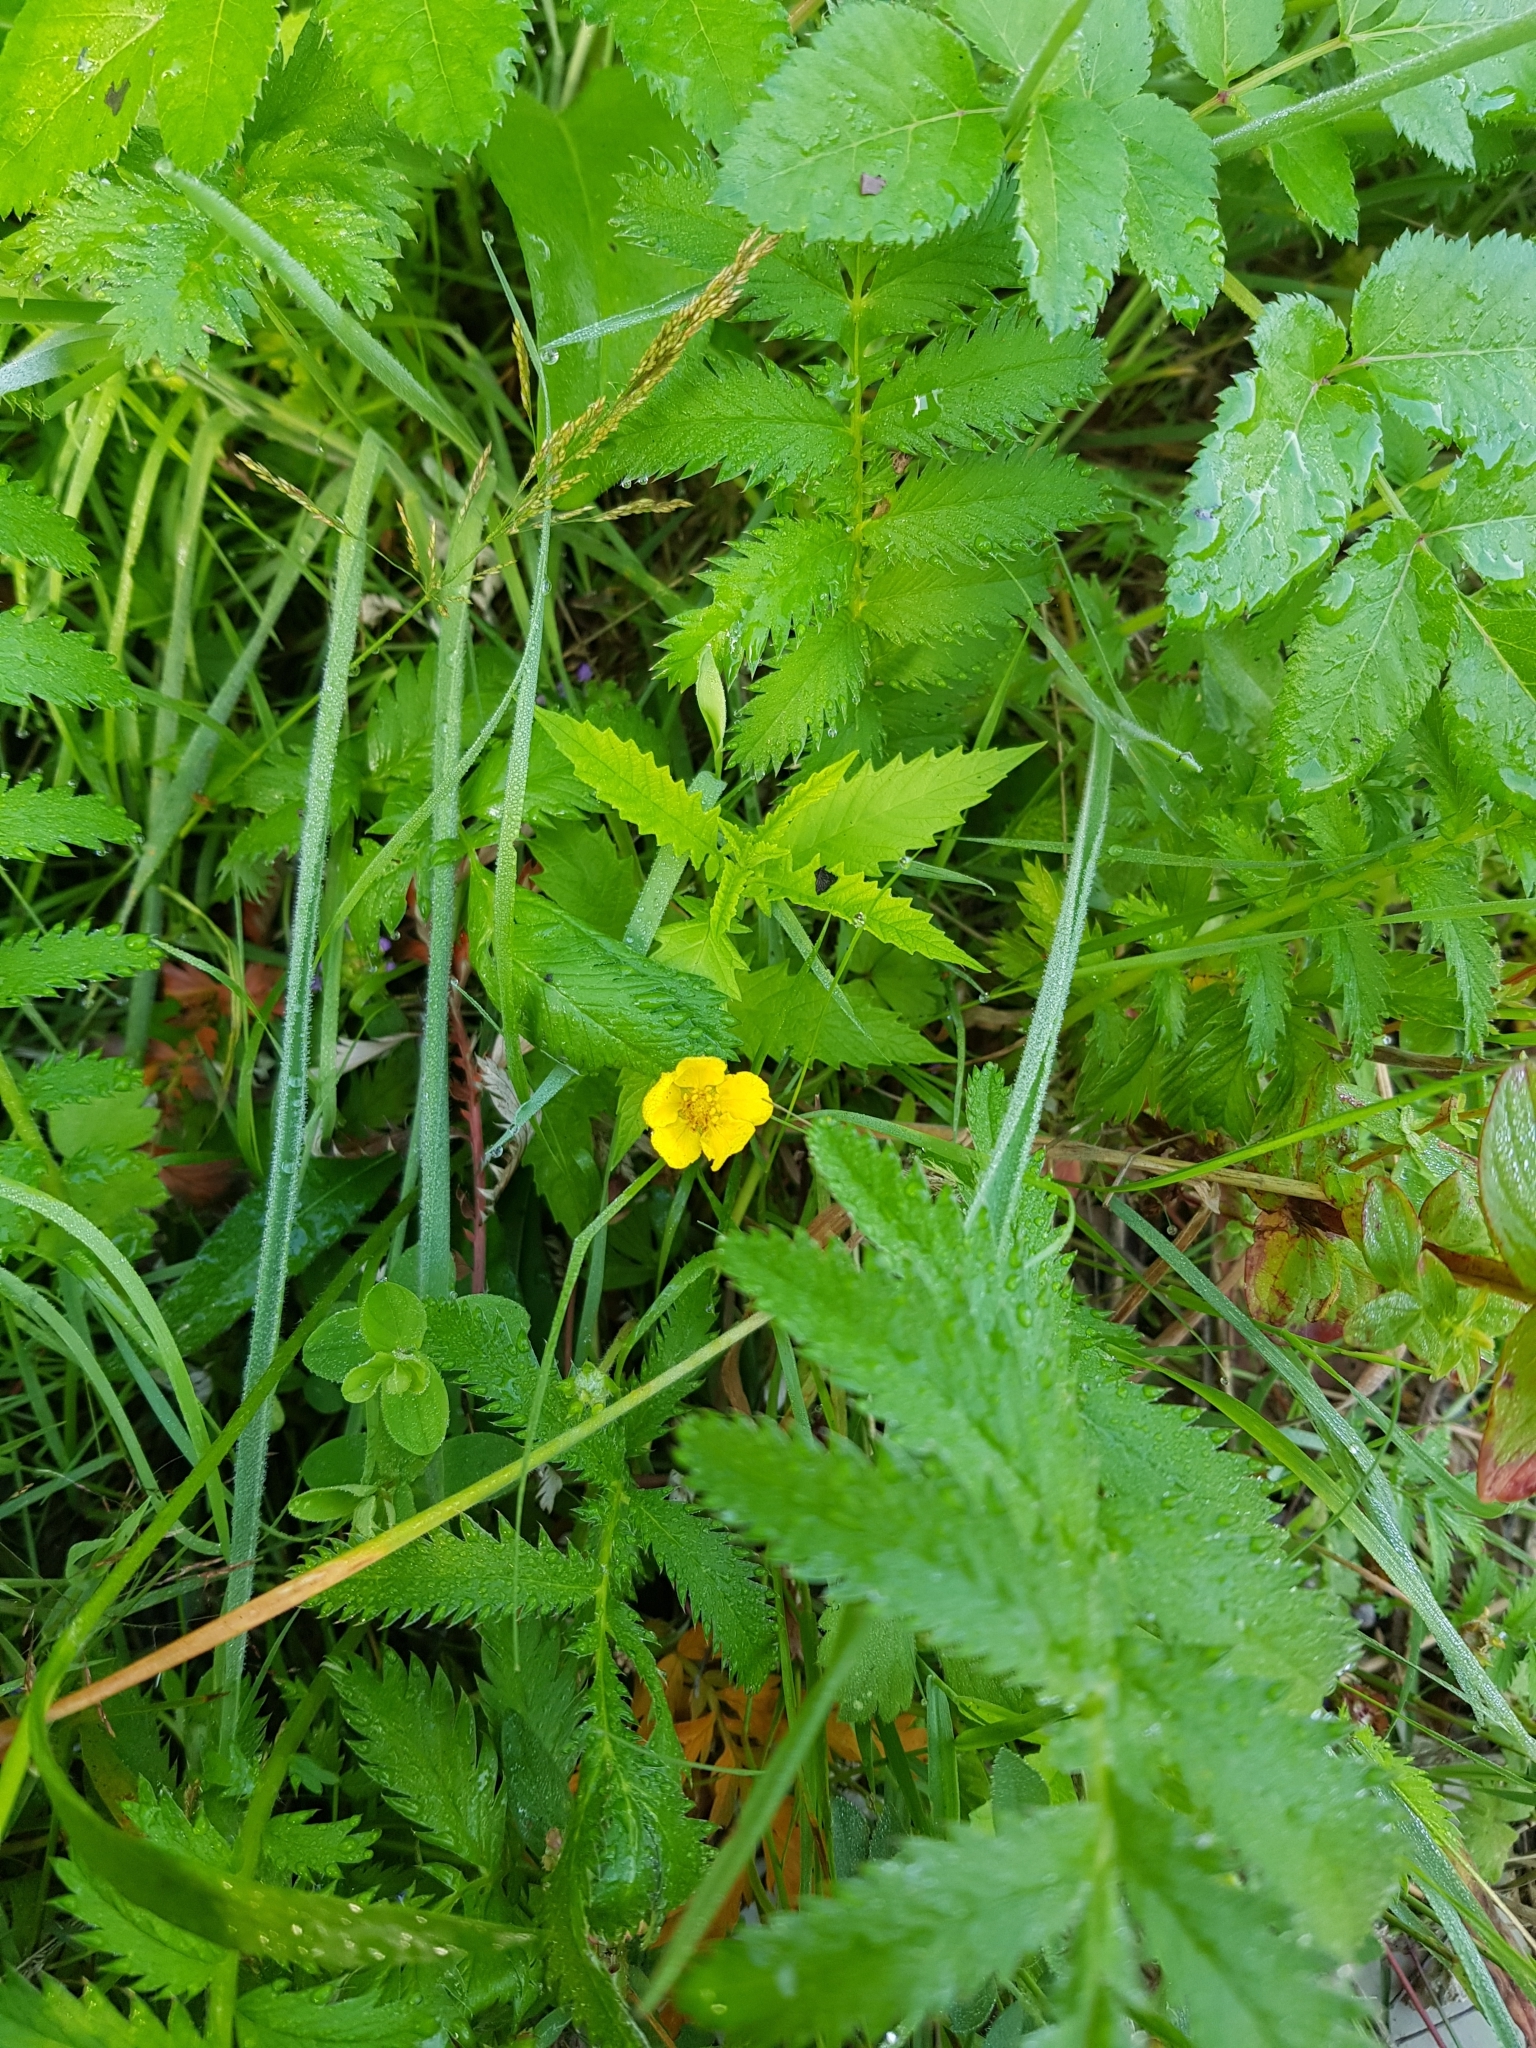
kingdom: Plantae
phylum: Tracheophyta
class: Magnoliopsida
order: Rosales
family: Rosaceae
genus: Argentina
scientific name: Argentina anserina
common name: Common silverweed
